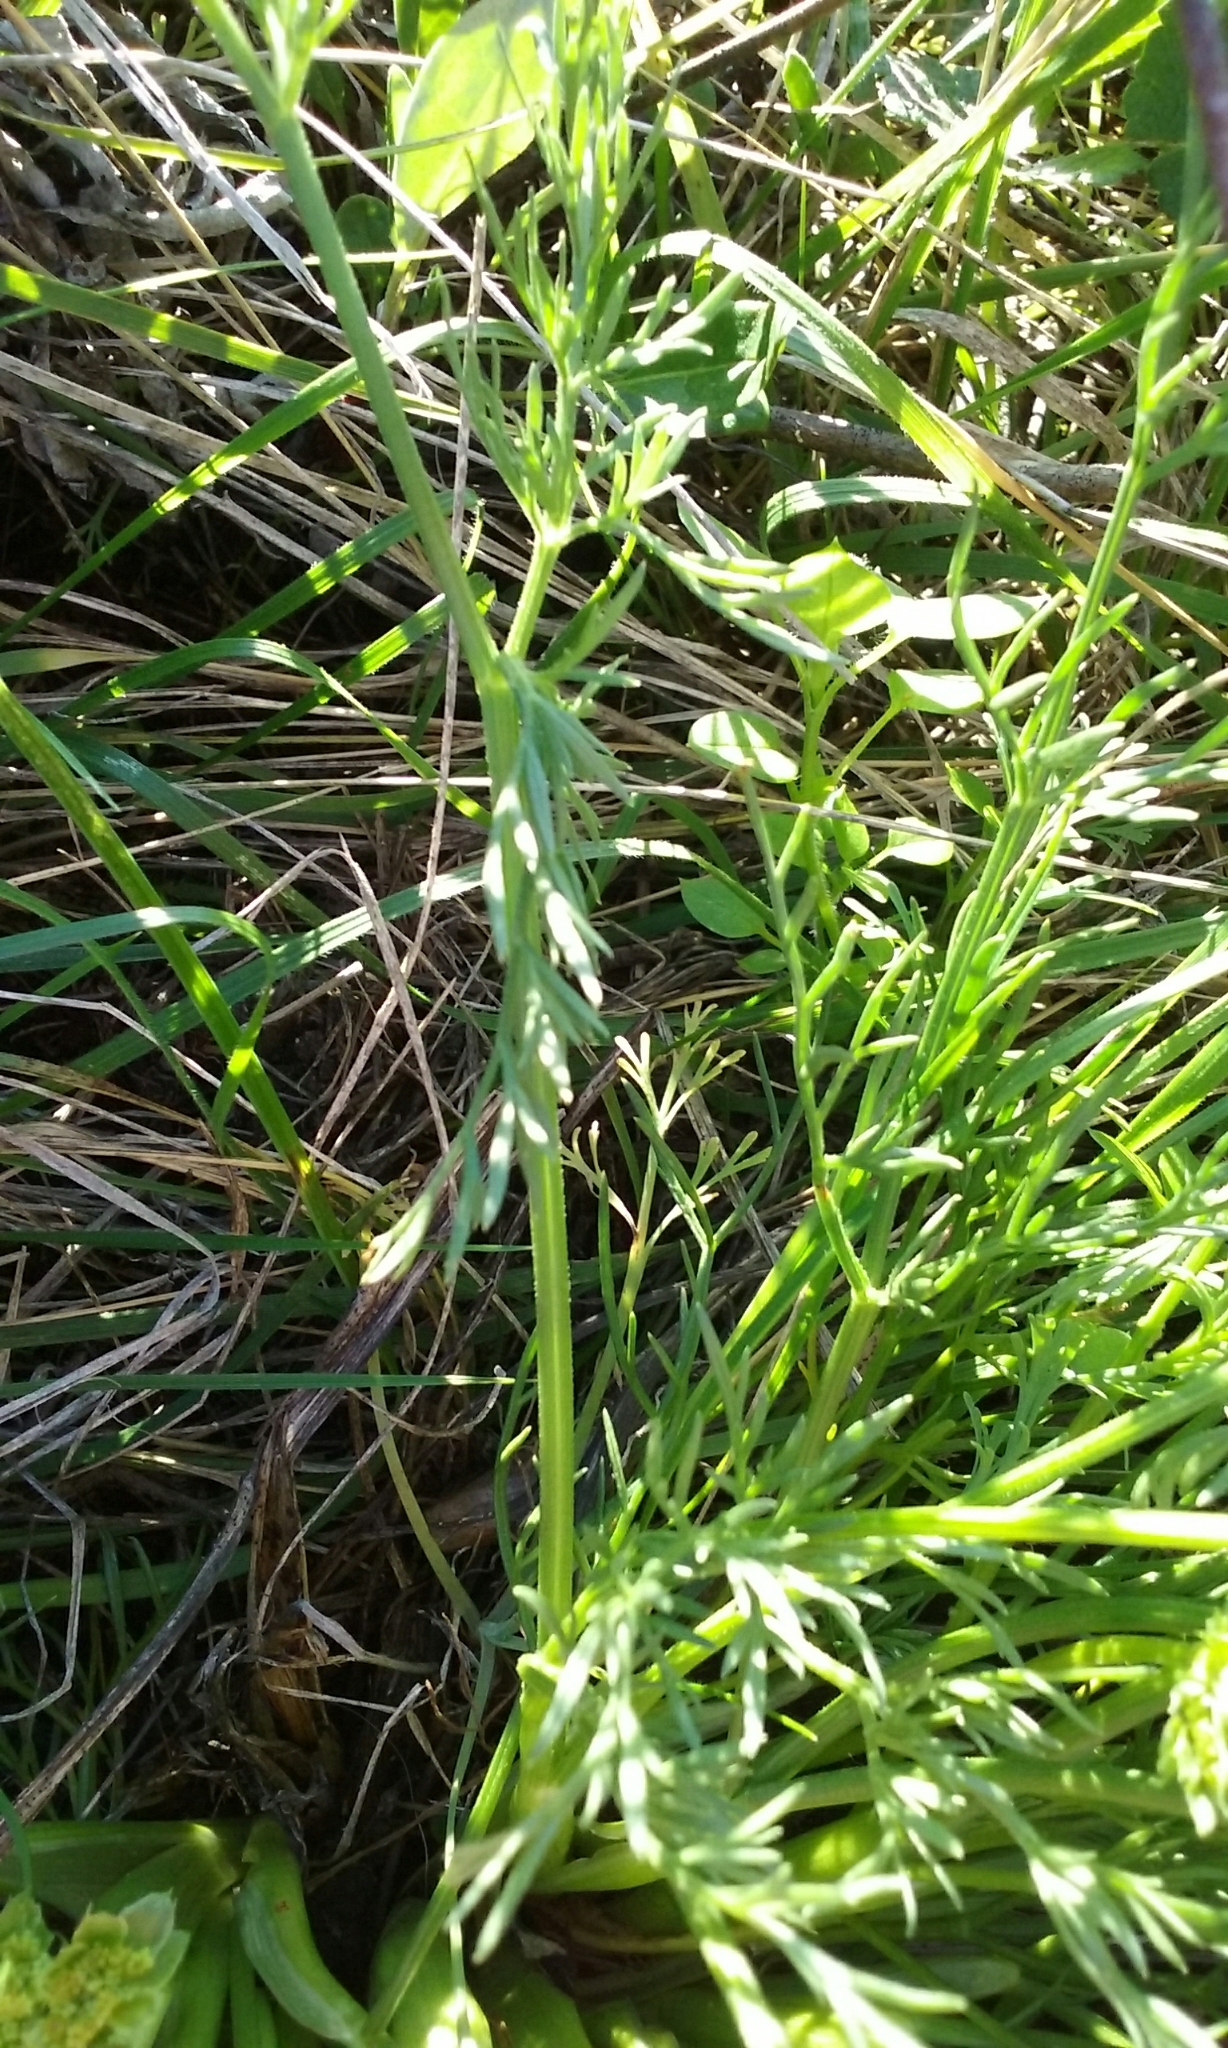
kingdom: Plantae
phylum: Tracheophyta
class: Magnoliopsida
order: Apiales
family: Apiaceae
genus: Lomatium
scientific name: Lomatium utriculatum
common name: Fine-leaf desert-parsley
